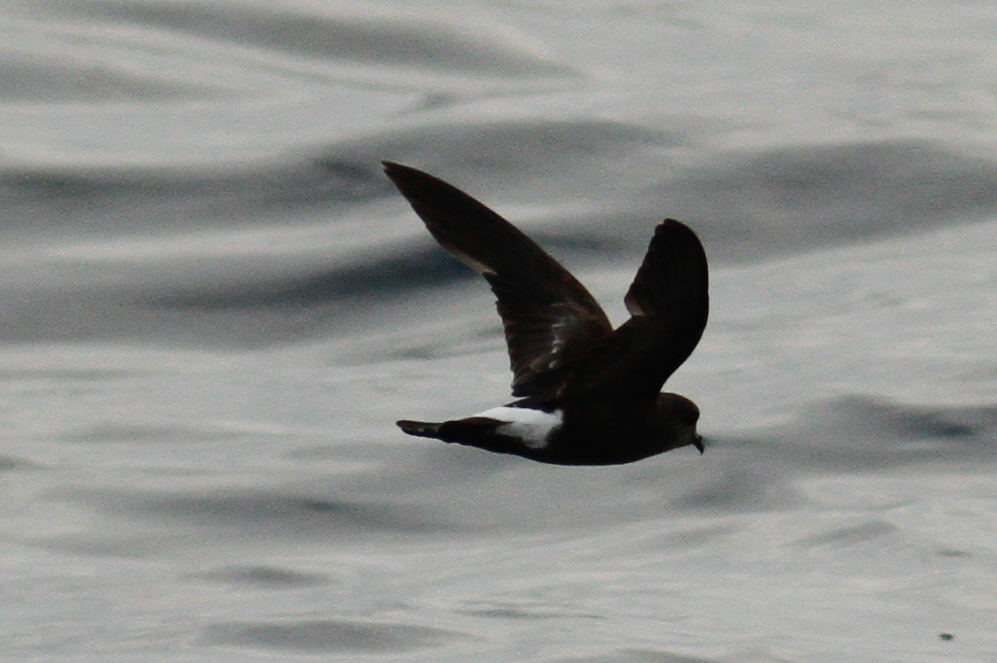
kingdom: Animalia
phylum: Chordata
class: Aves
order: Procellariiformes
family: Hydrobatidae
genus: Oceanites
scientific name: Oceanites oceanicus
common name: Wilson's storm petrel
